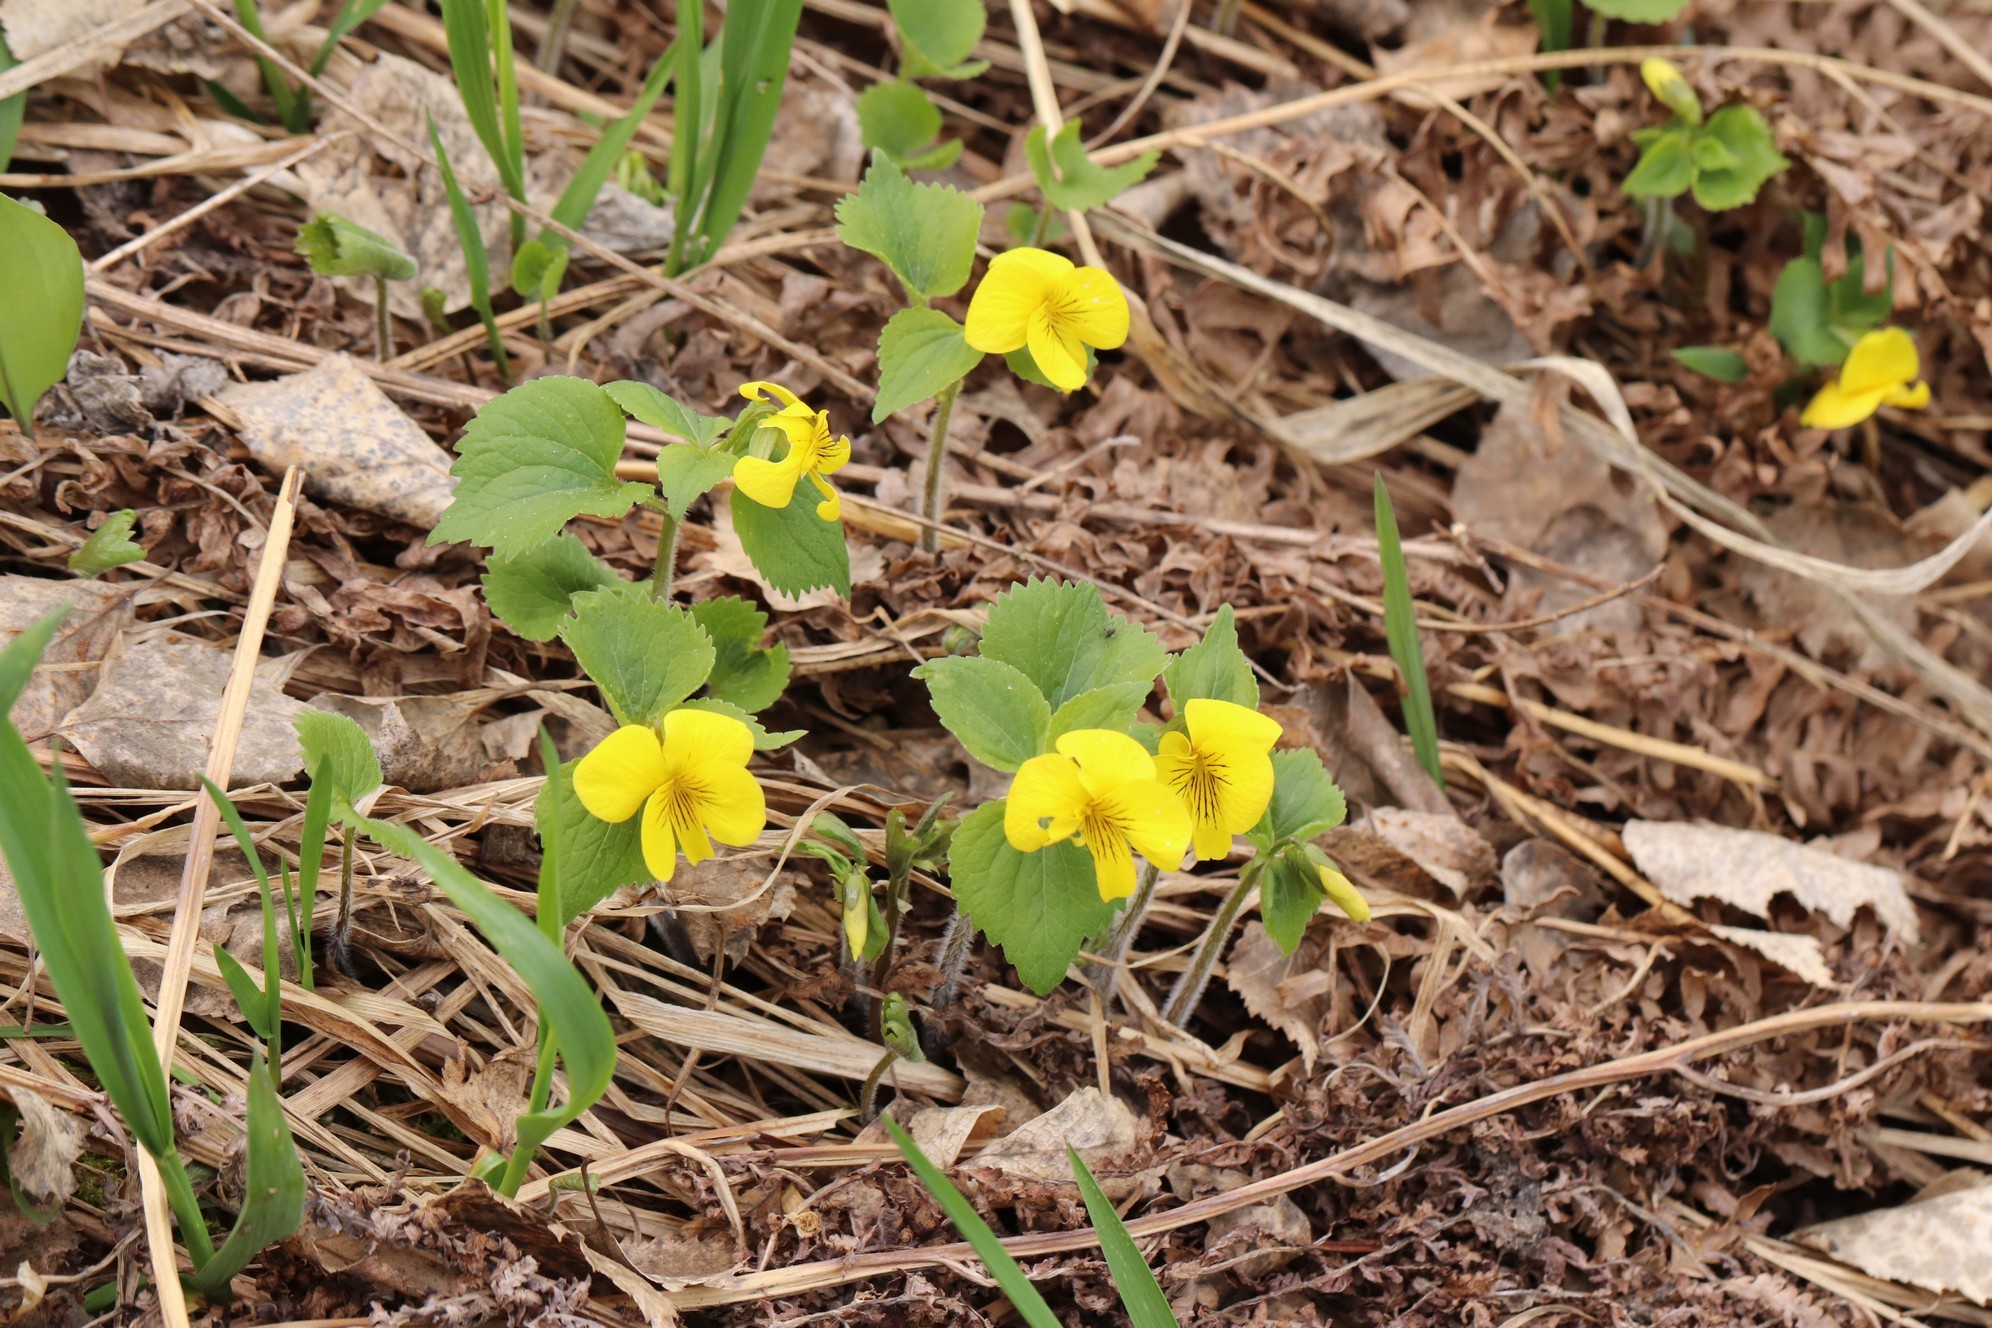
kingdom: Plantae
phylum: Tracheophyta
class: Magnoliopsida
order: Malpighiales
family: Violaceae
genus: Viola
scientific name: Viola uniflora
